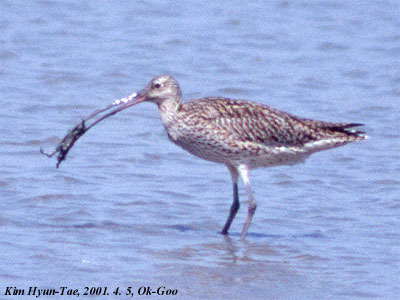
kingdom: Animalia
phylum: Chordata
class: Aves
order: Charadriiformes
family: Scolopacidae
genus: Numenius
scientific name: Numenius madagascariensis
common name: Far eastern curlew
